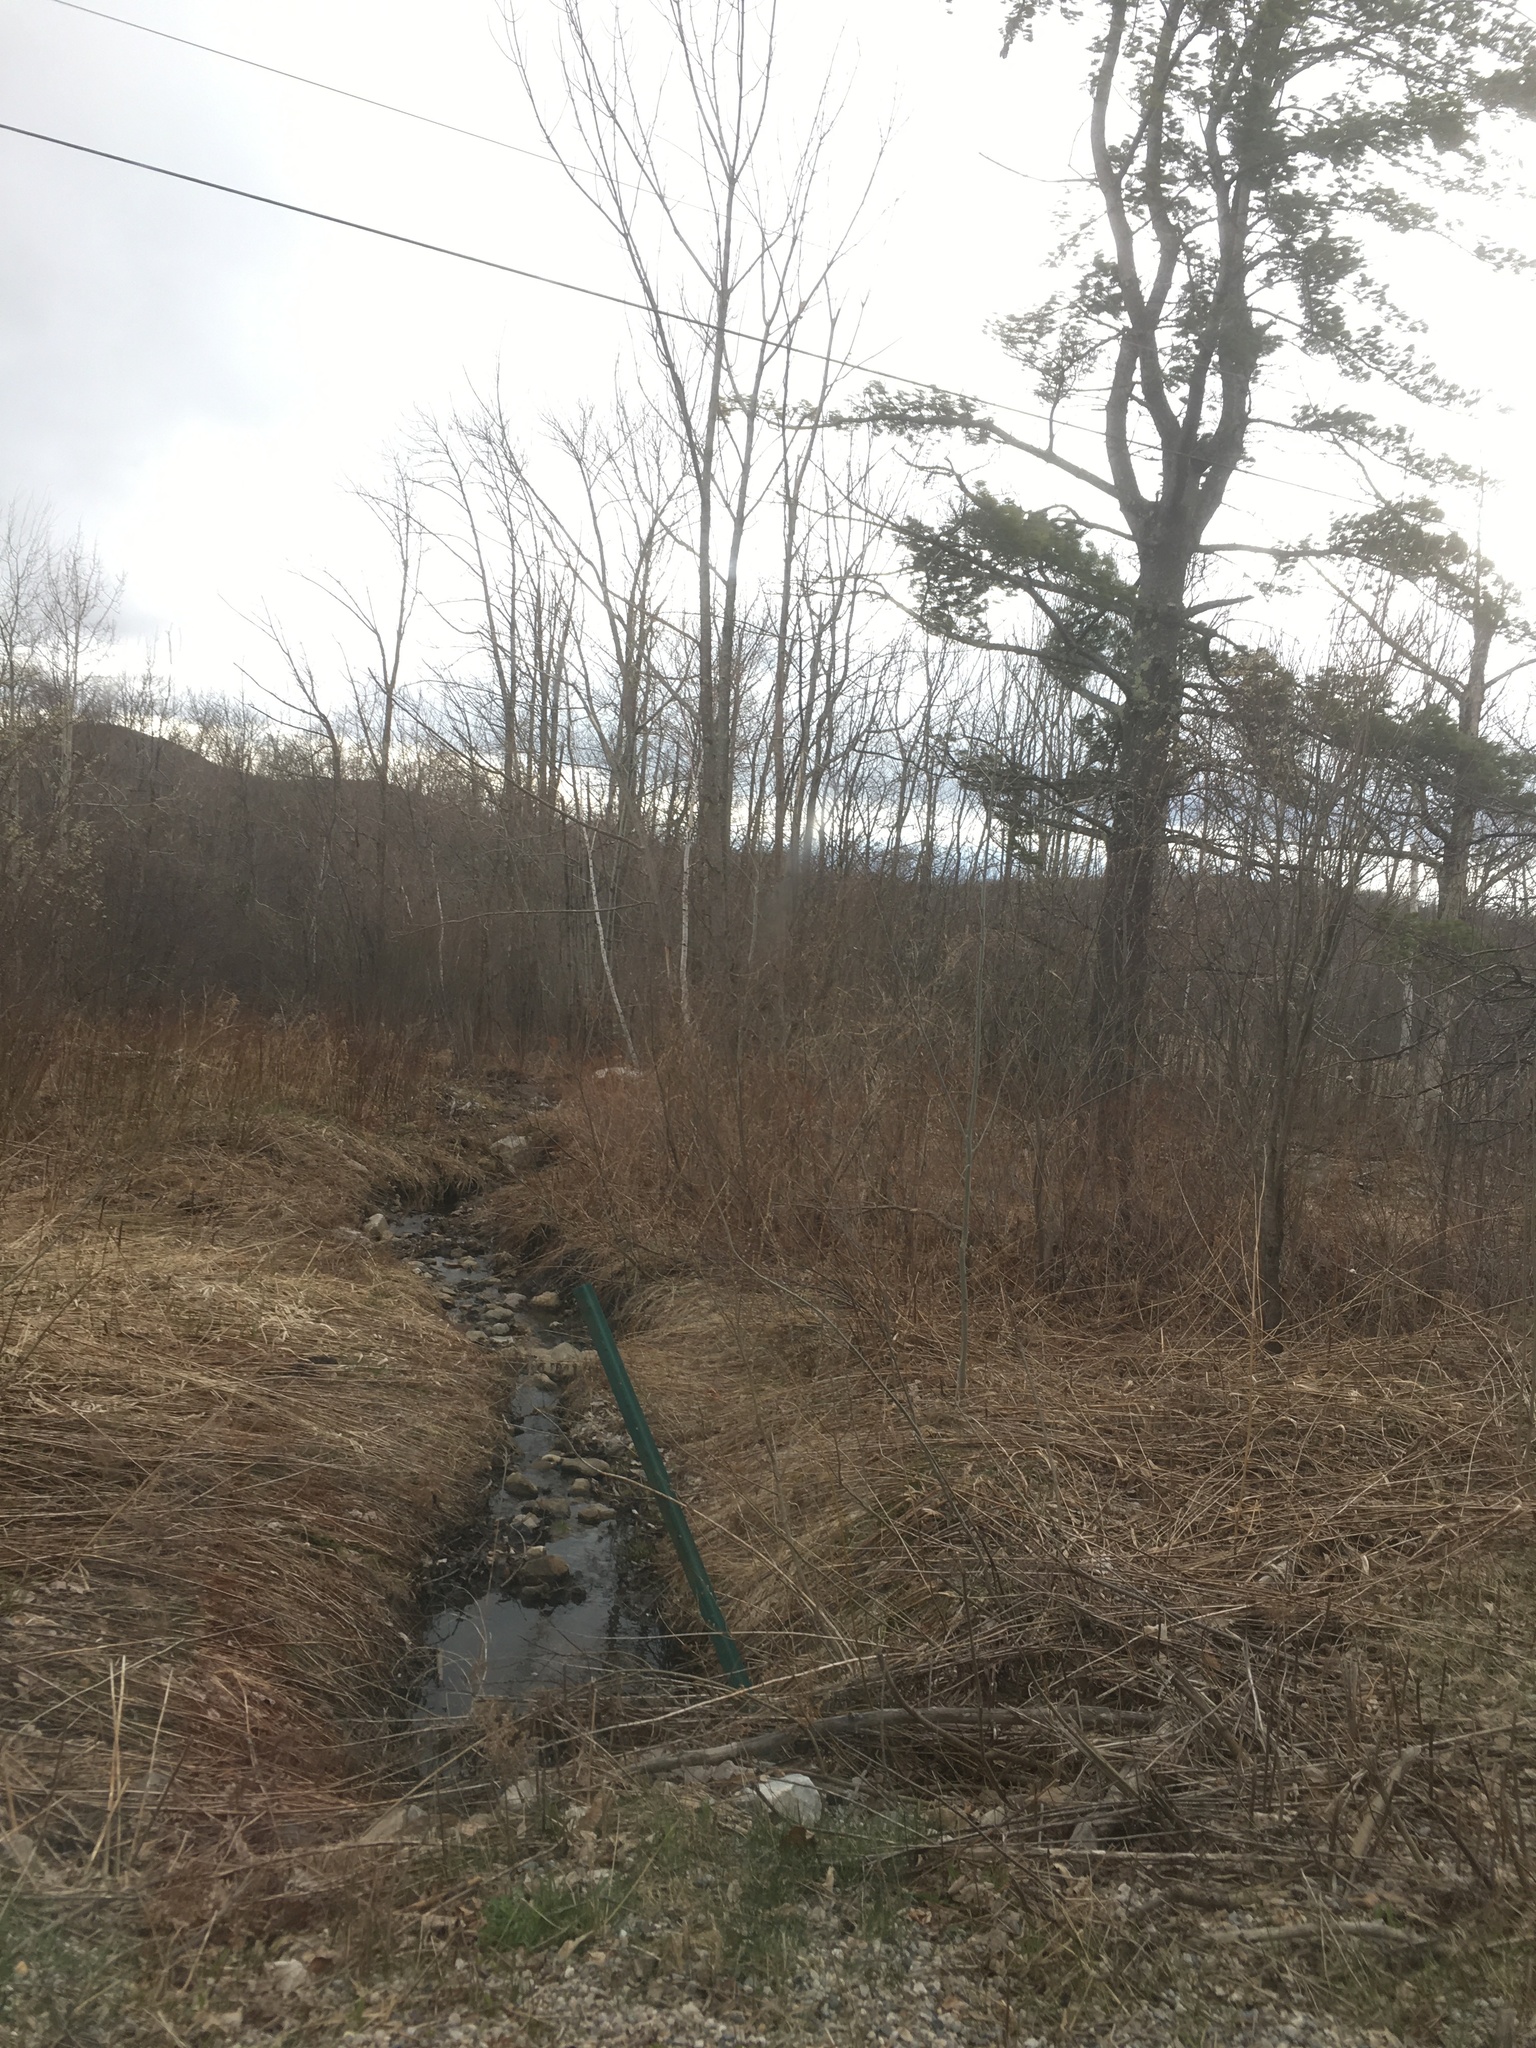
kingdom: Plantae
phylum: Tracheophyta
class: Pinopsida
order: Pinales
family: Pinaceae
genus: Pinus
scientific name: Pinus strobus
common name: Weymouth pine
